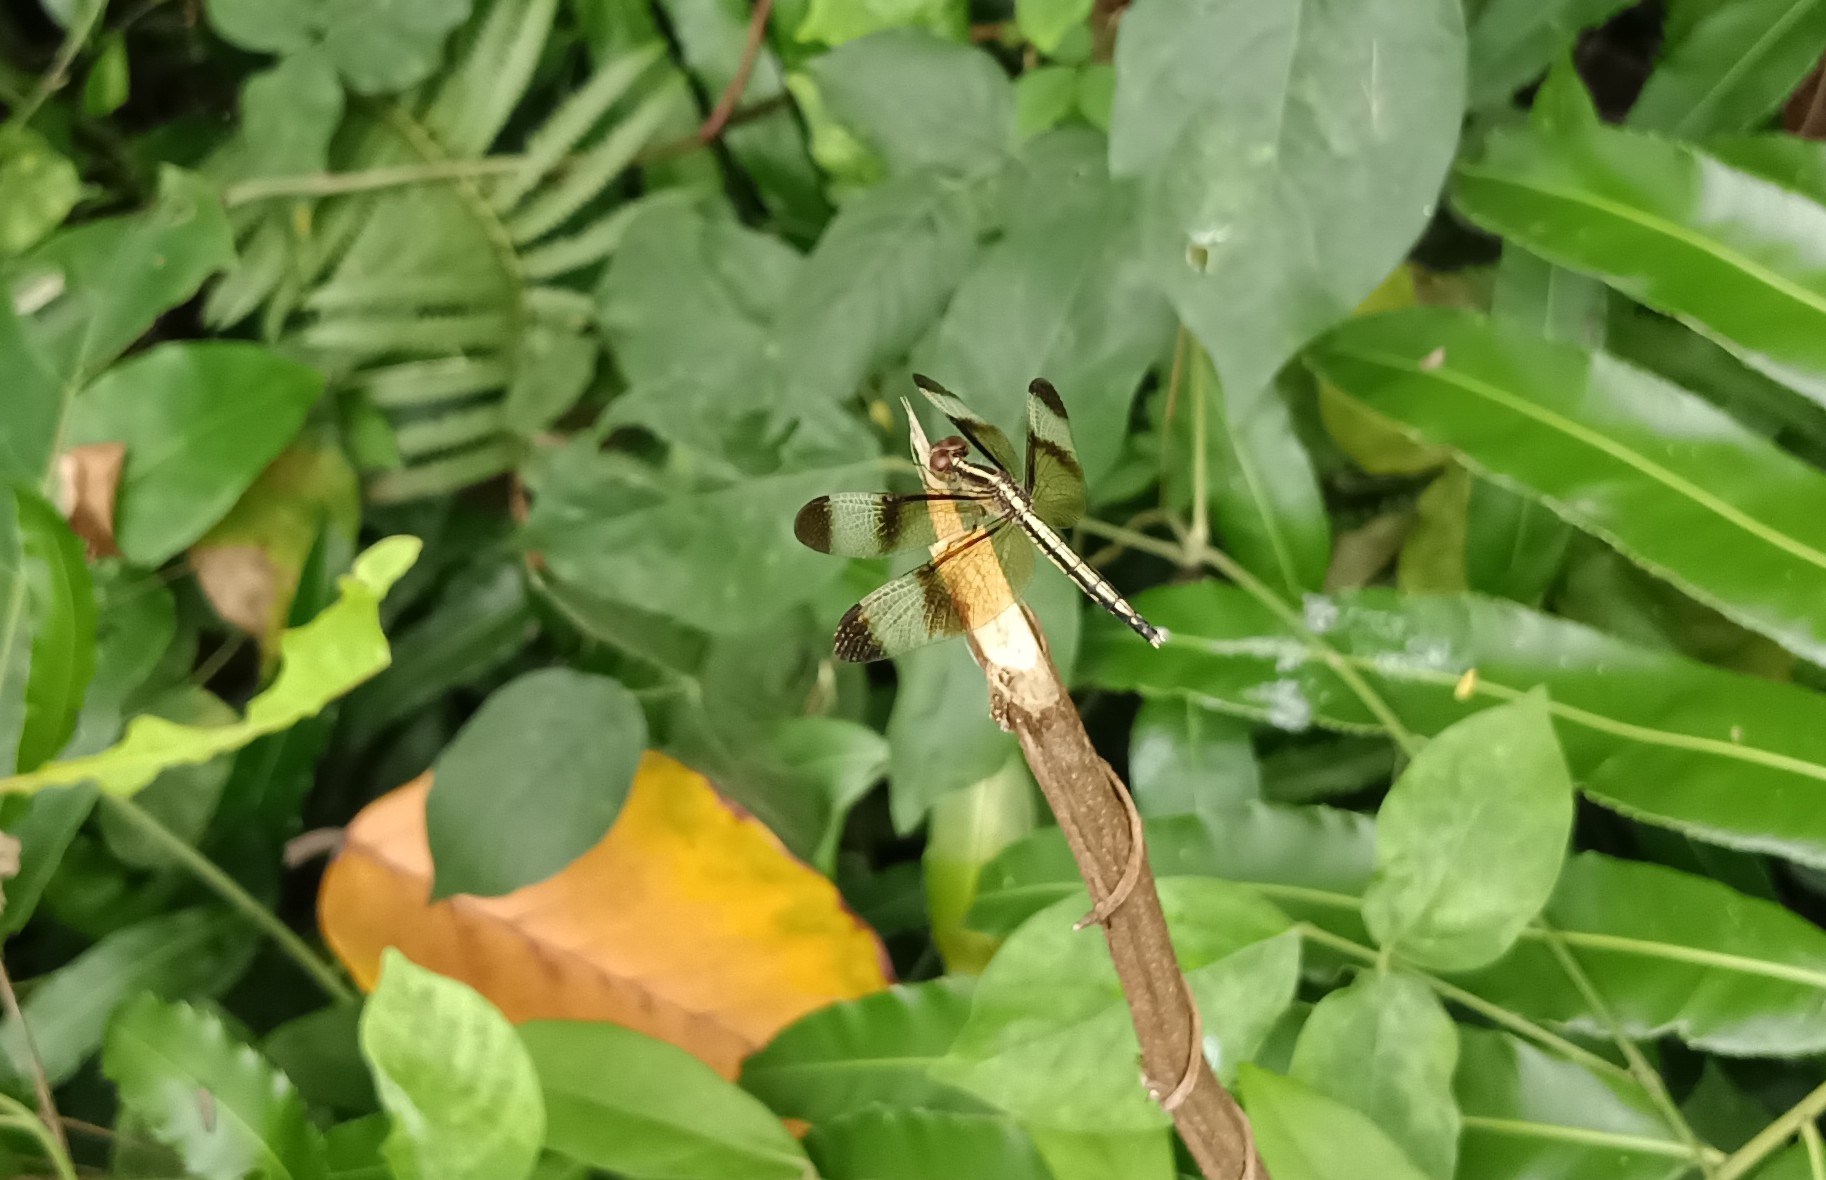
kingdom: Animalia
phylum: Arthropoda
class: Insecta
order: Odonata
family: Libellulidae
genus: Neurothemis
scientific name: Neurothemis tullia
